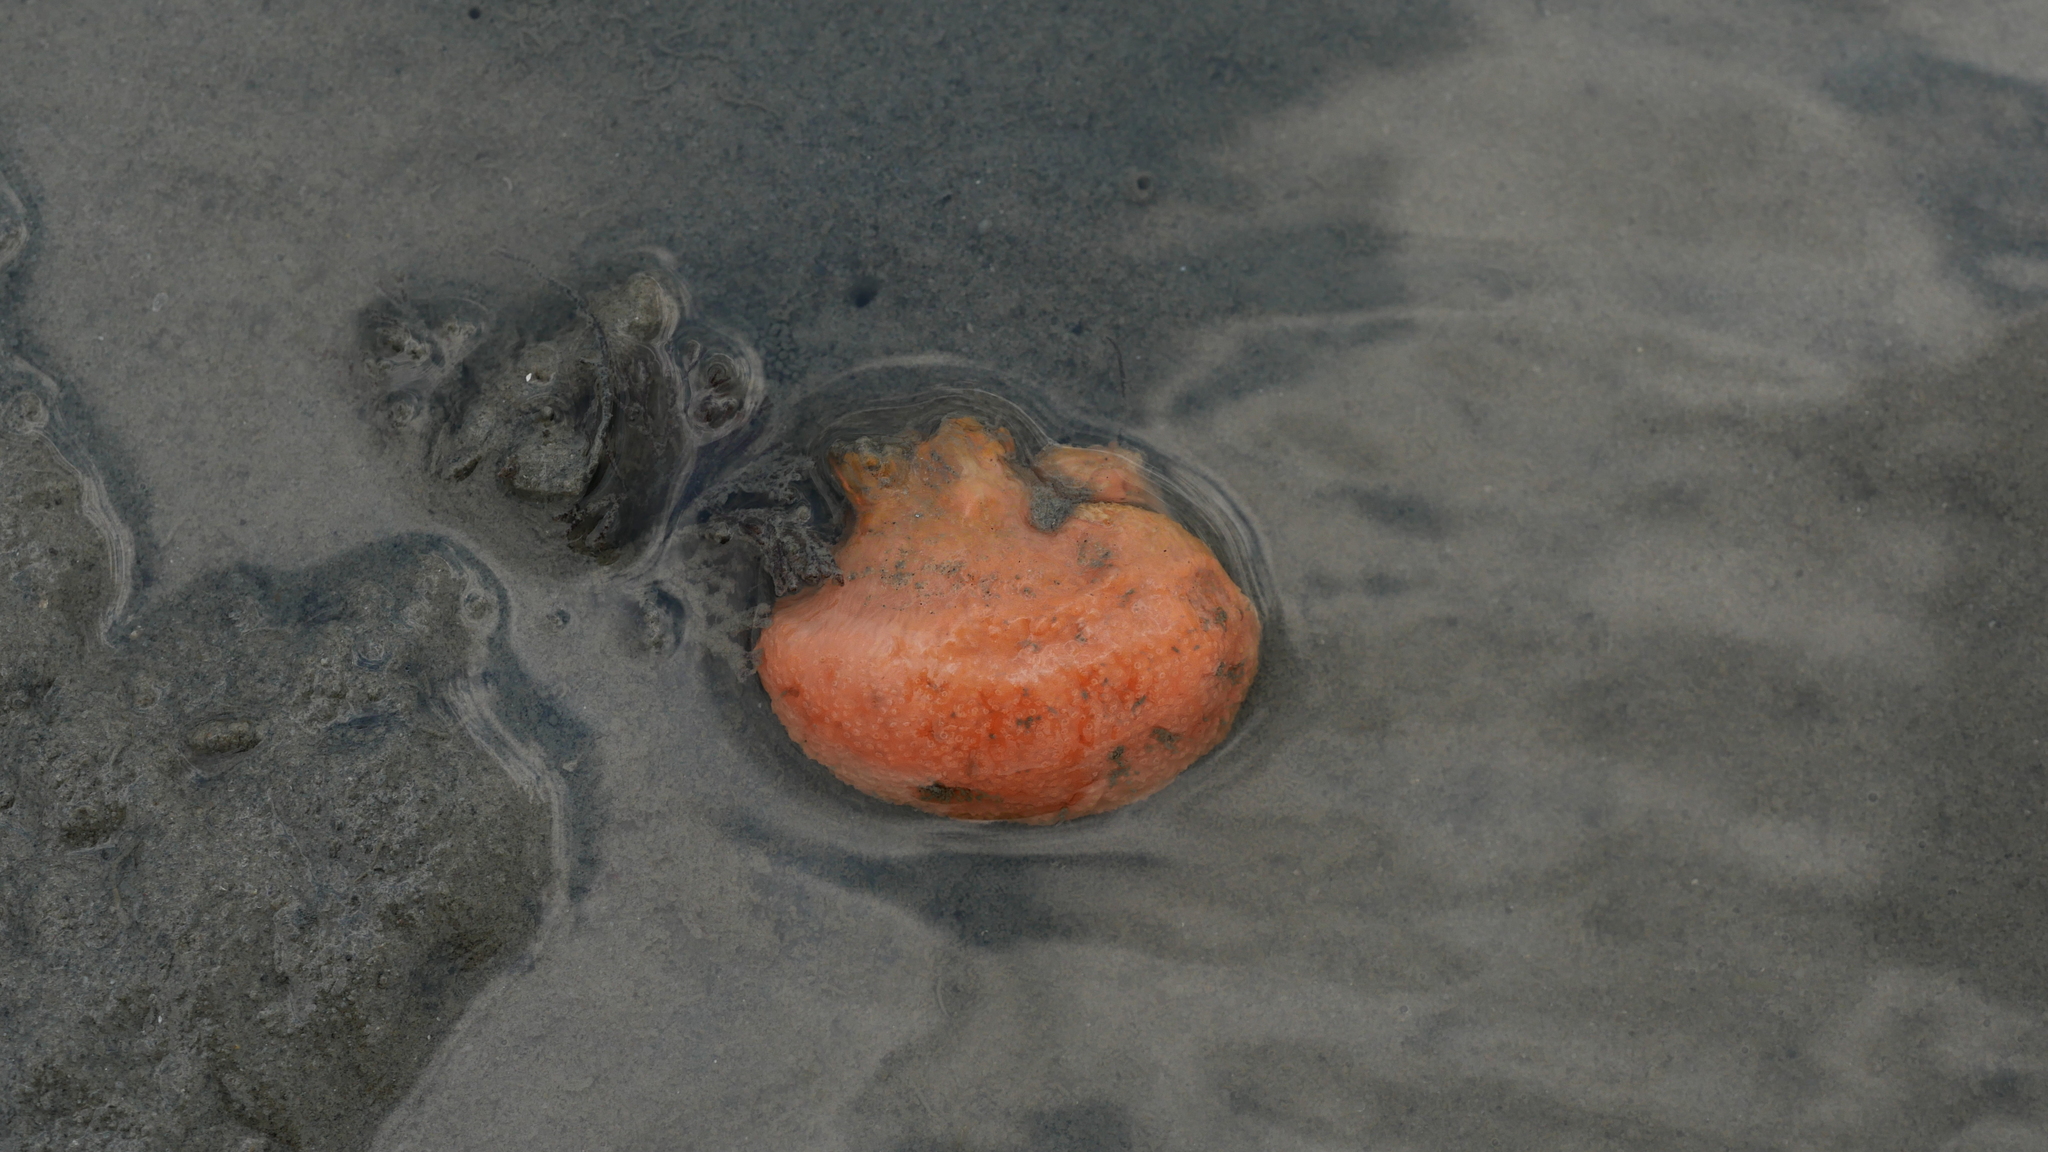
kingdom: Animalia
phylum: Chordata
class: Ascidiacea
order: Aplousobranchia
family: Polyclinidae
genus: Aplidium
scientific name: Aplidium stellatum
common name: Atlantic sea pork
